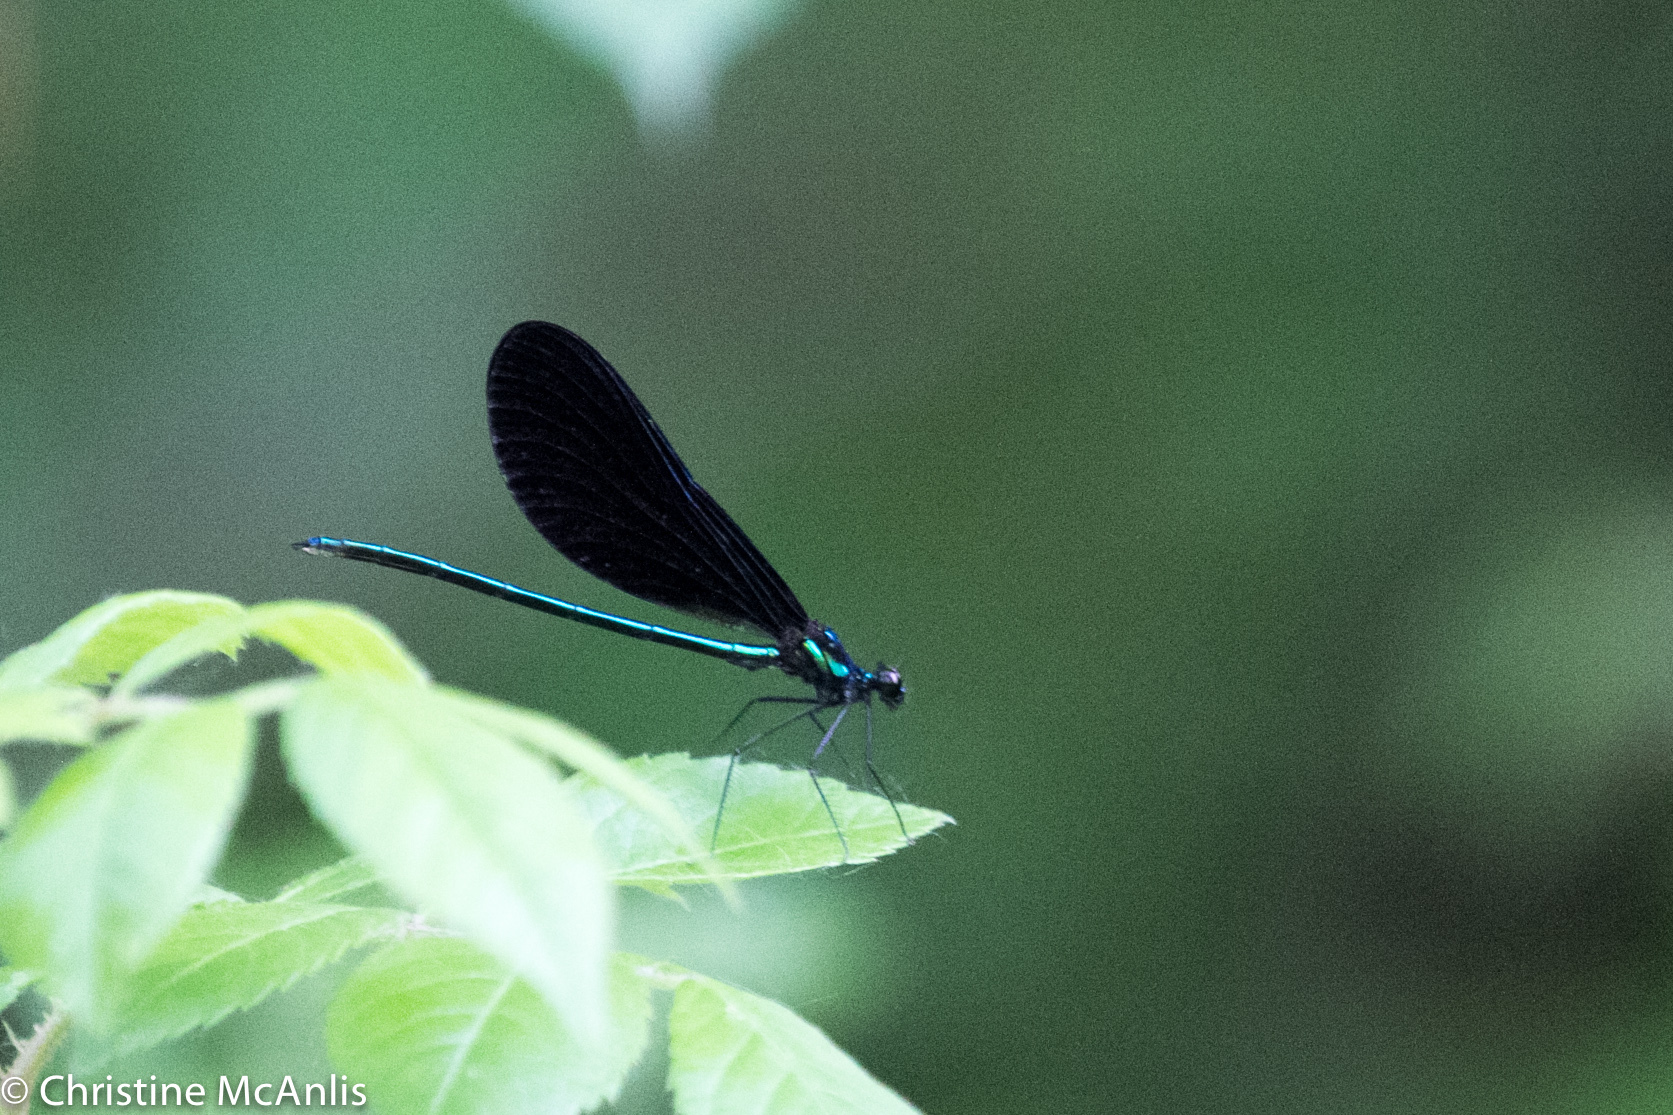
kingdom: Animalia
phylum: Arthropoda
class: Insecta
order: Odonata
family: Calopterygidae
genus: Calopteryx
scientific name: Calopteryx maculata
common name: Ebony jewelwing
